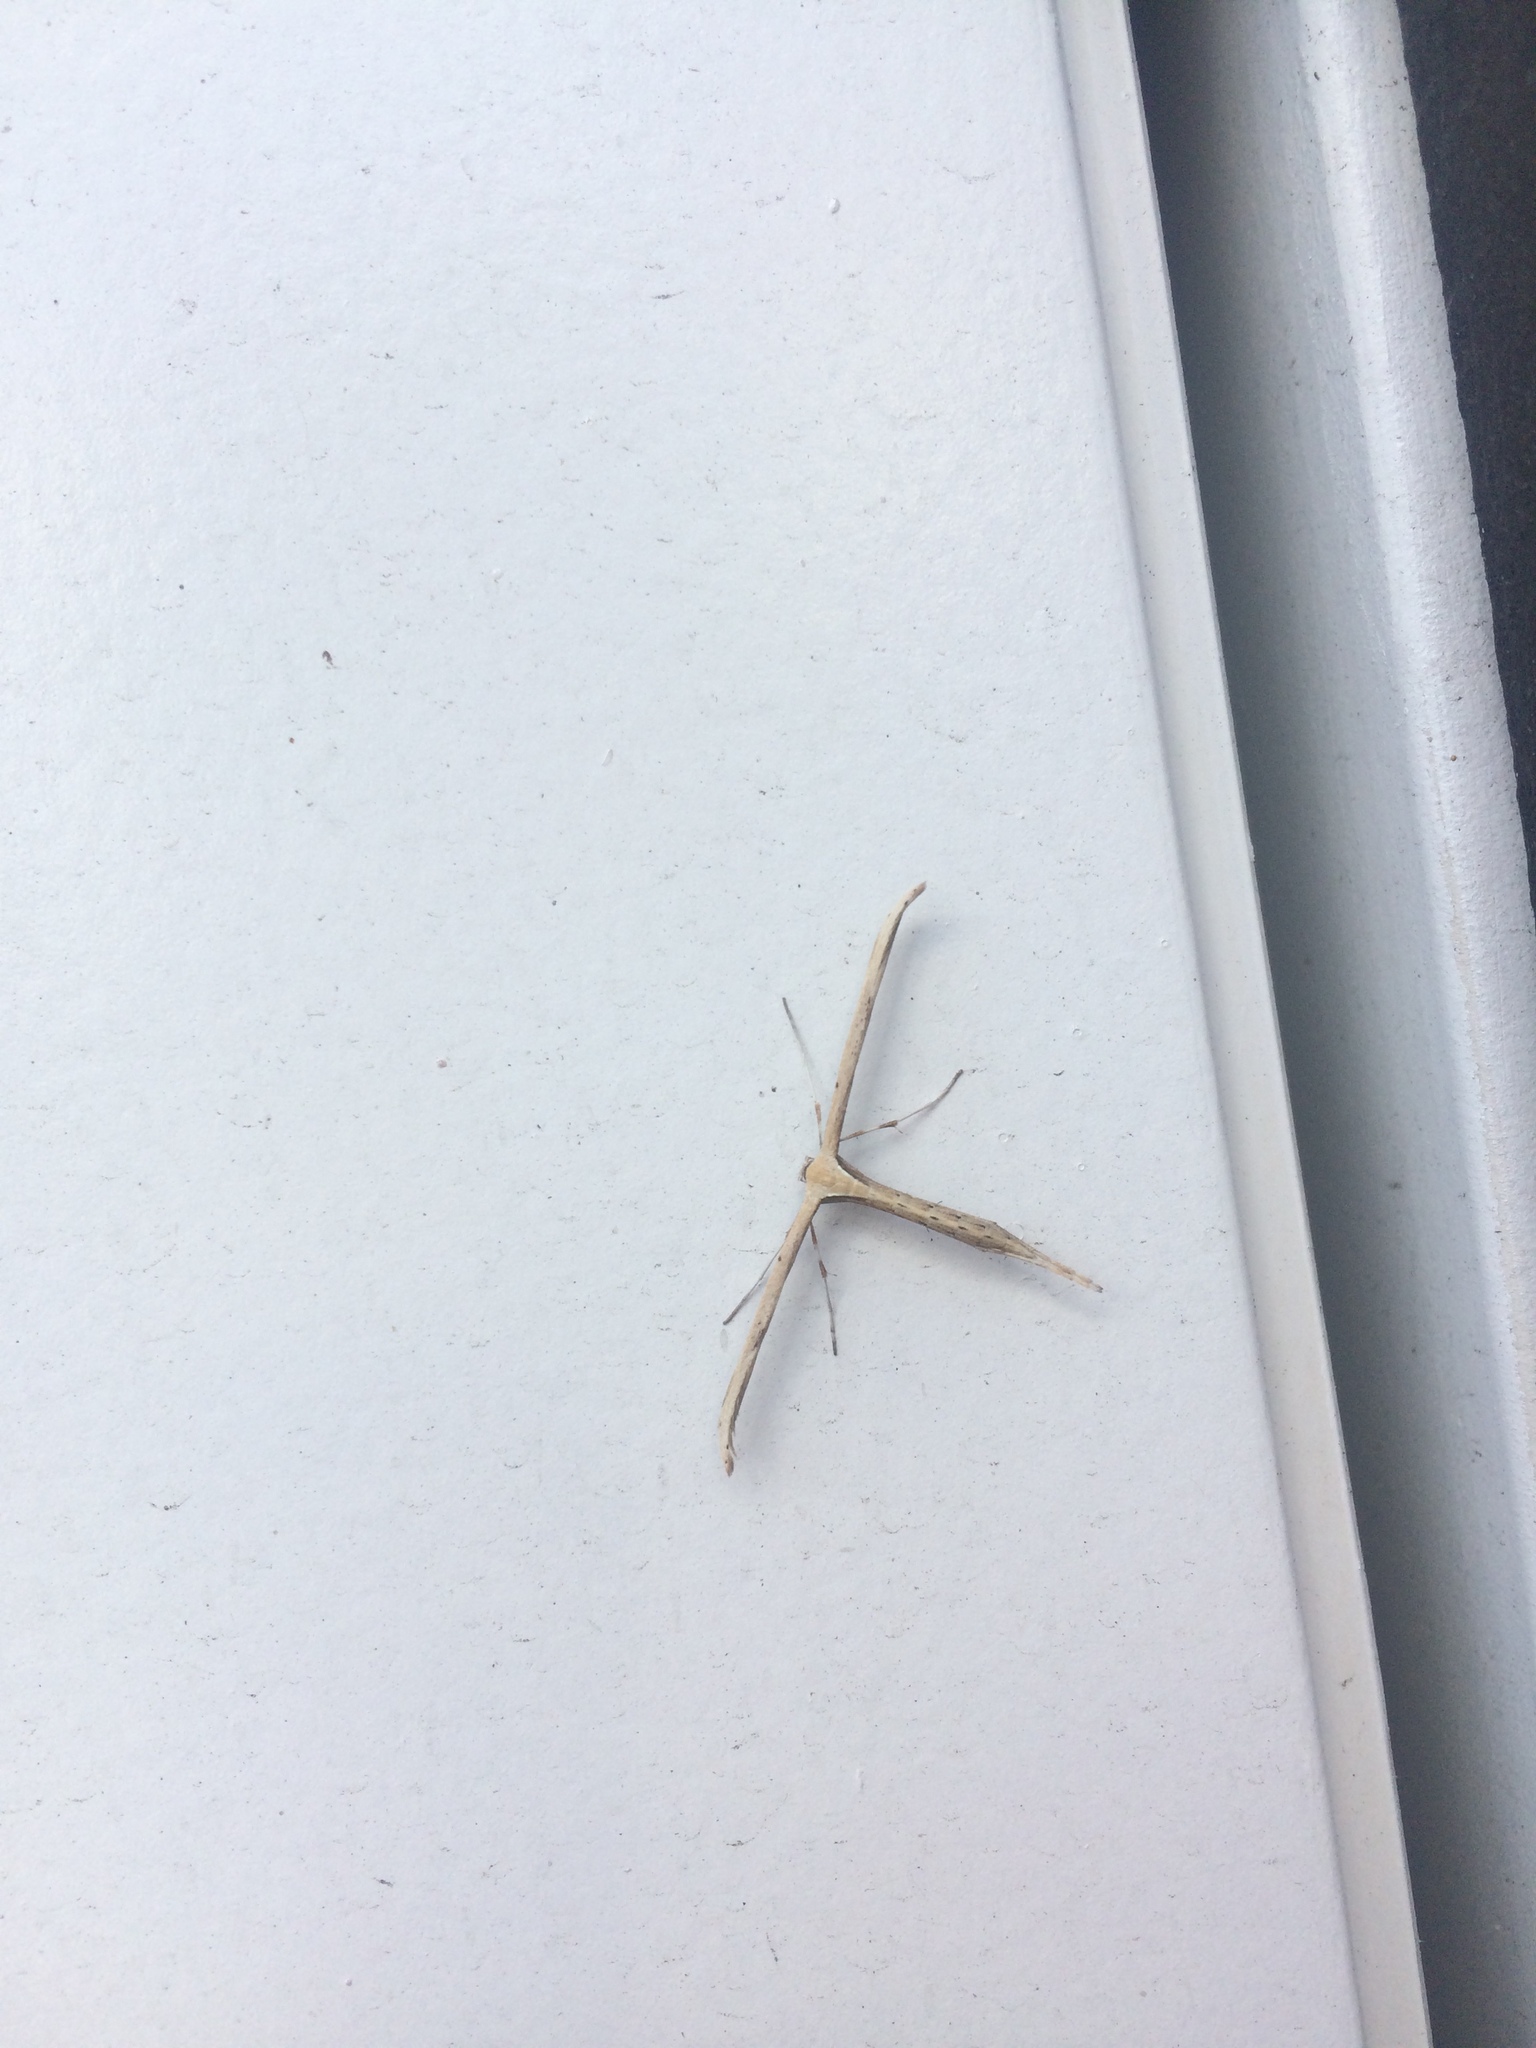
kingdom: Animalia
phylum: Arthropoda
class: Insecta
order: Lepidoptera
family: Pterophoridae
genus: Emmelina
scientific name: Emmelina monodactyla
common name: Common plume
